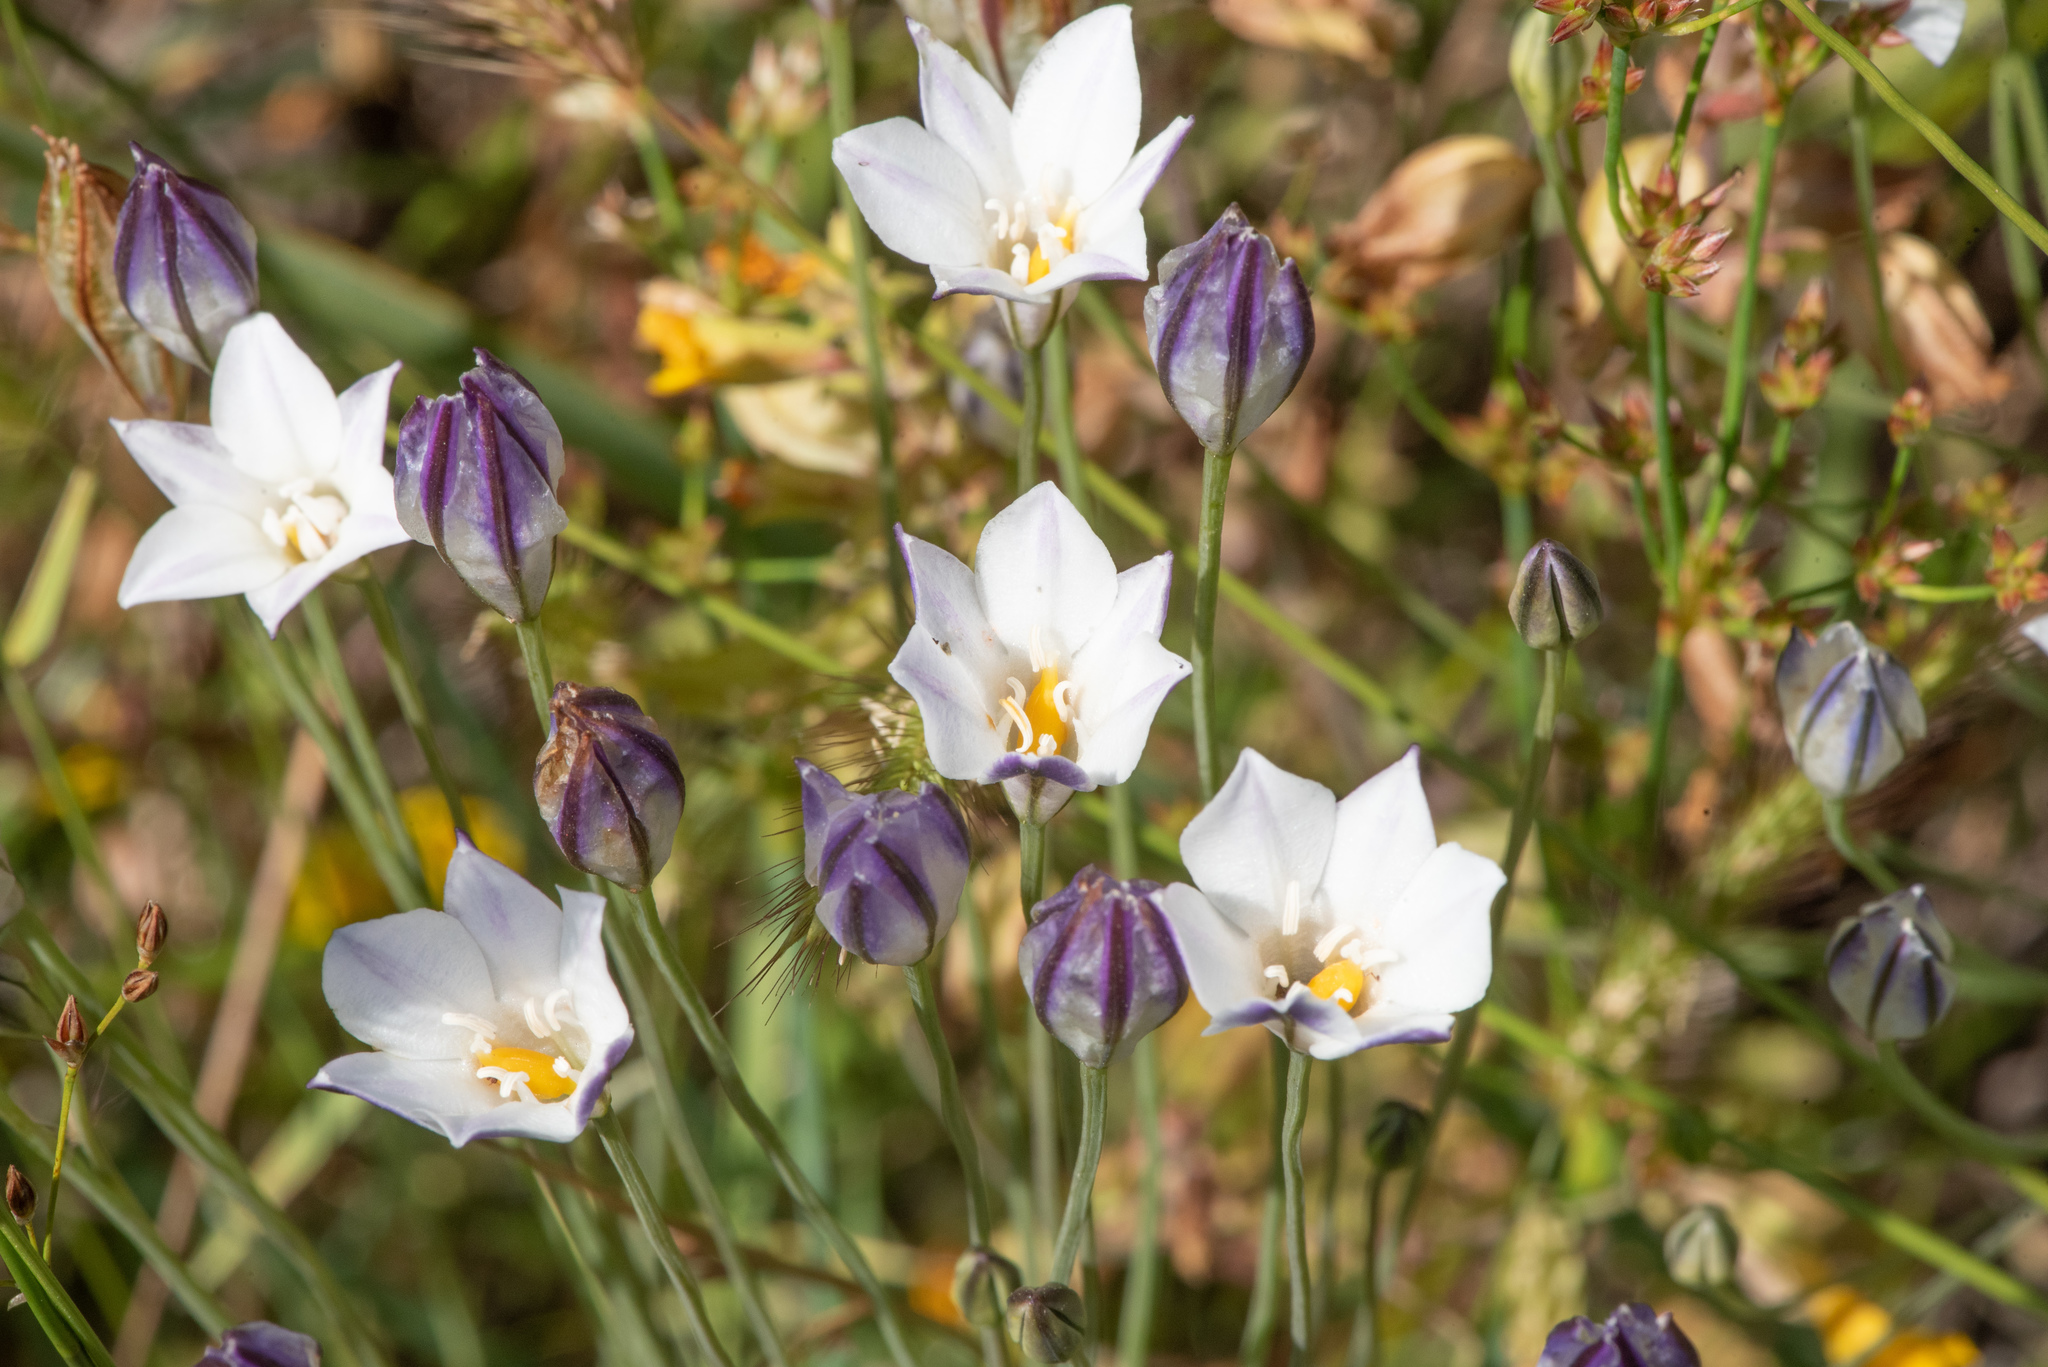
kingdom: Plantae
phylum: Tracheophyta
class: Liliopsida
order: Asparagales
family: Asparagaceae
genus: Triteleia
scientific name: Triteleia peduncularis
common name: Long-ray brodiaea
